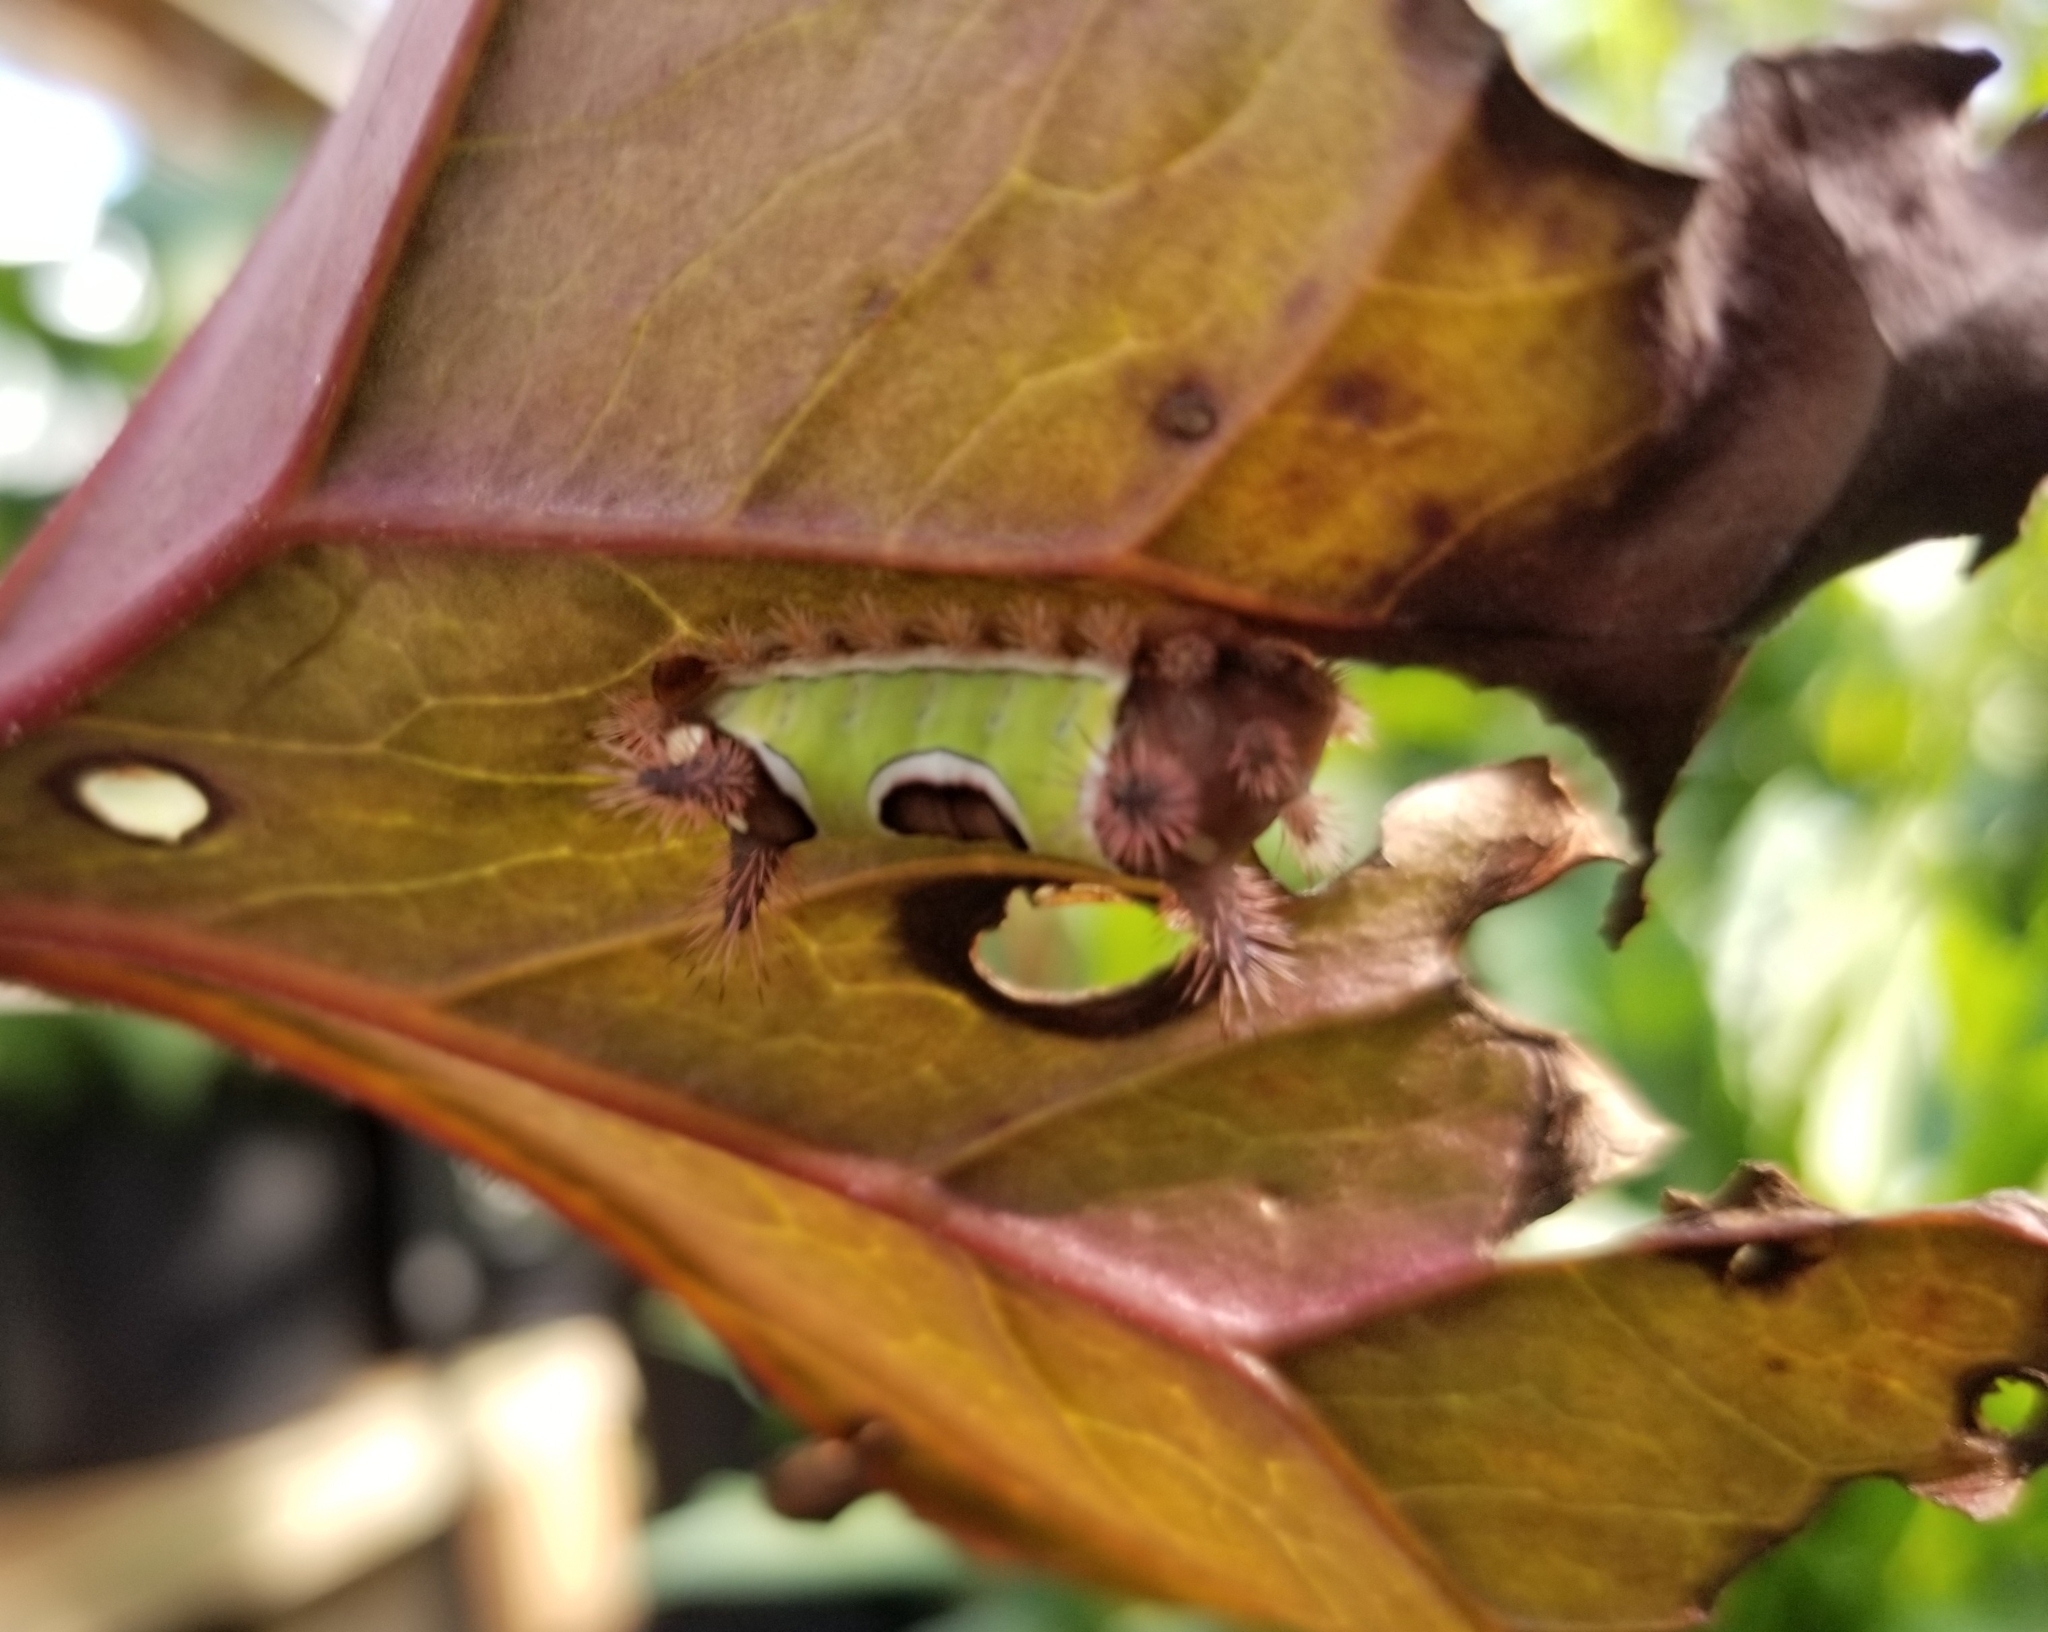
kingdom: Animalia
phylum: Arthropoda
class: Insecta
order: Lepidoptera
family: Limacodidae
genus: Acharia
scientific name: Acharia stimulea
